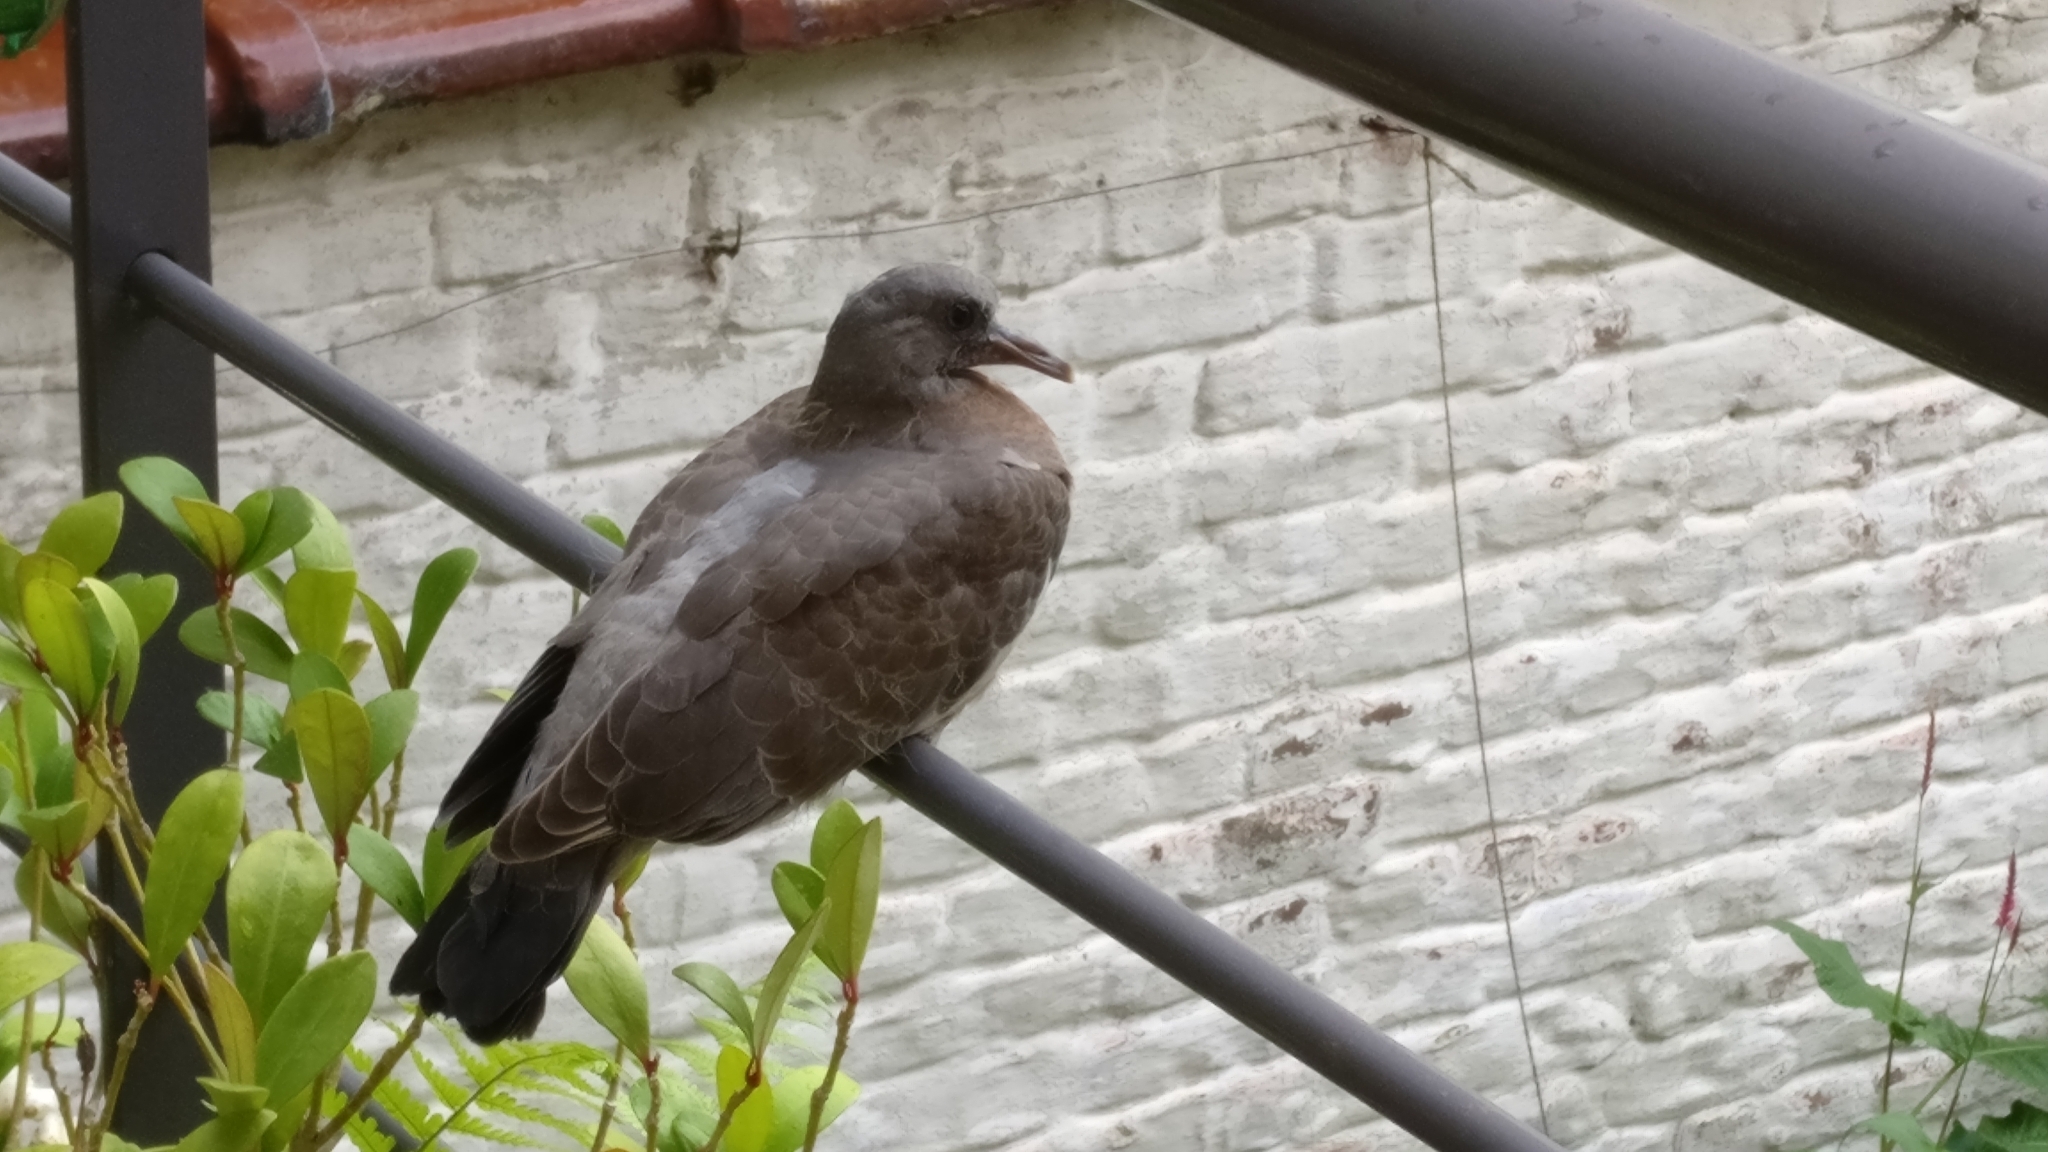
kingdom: Animalia
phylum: Chordata
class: Aves
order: Columbiformes
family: Columbidae
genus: Columba
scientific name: Columba palumbus
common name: Common wood pigeon
